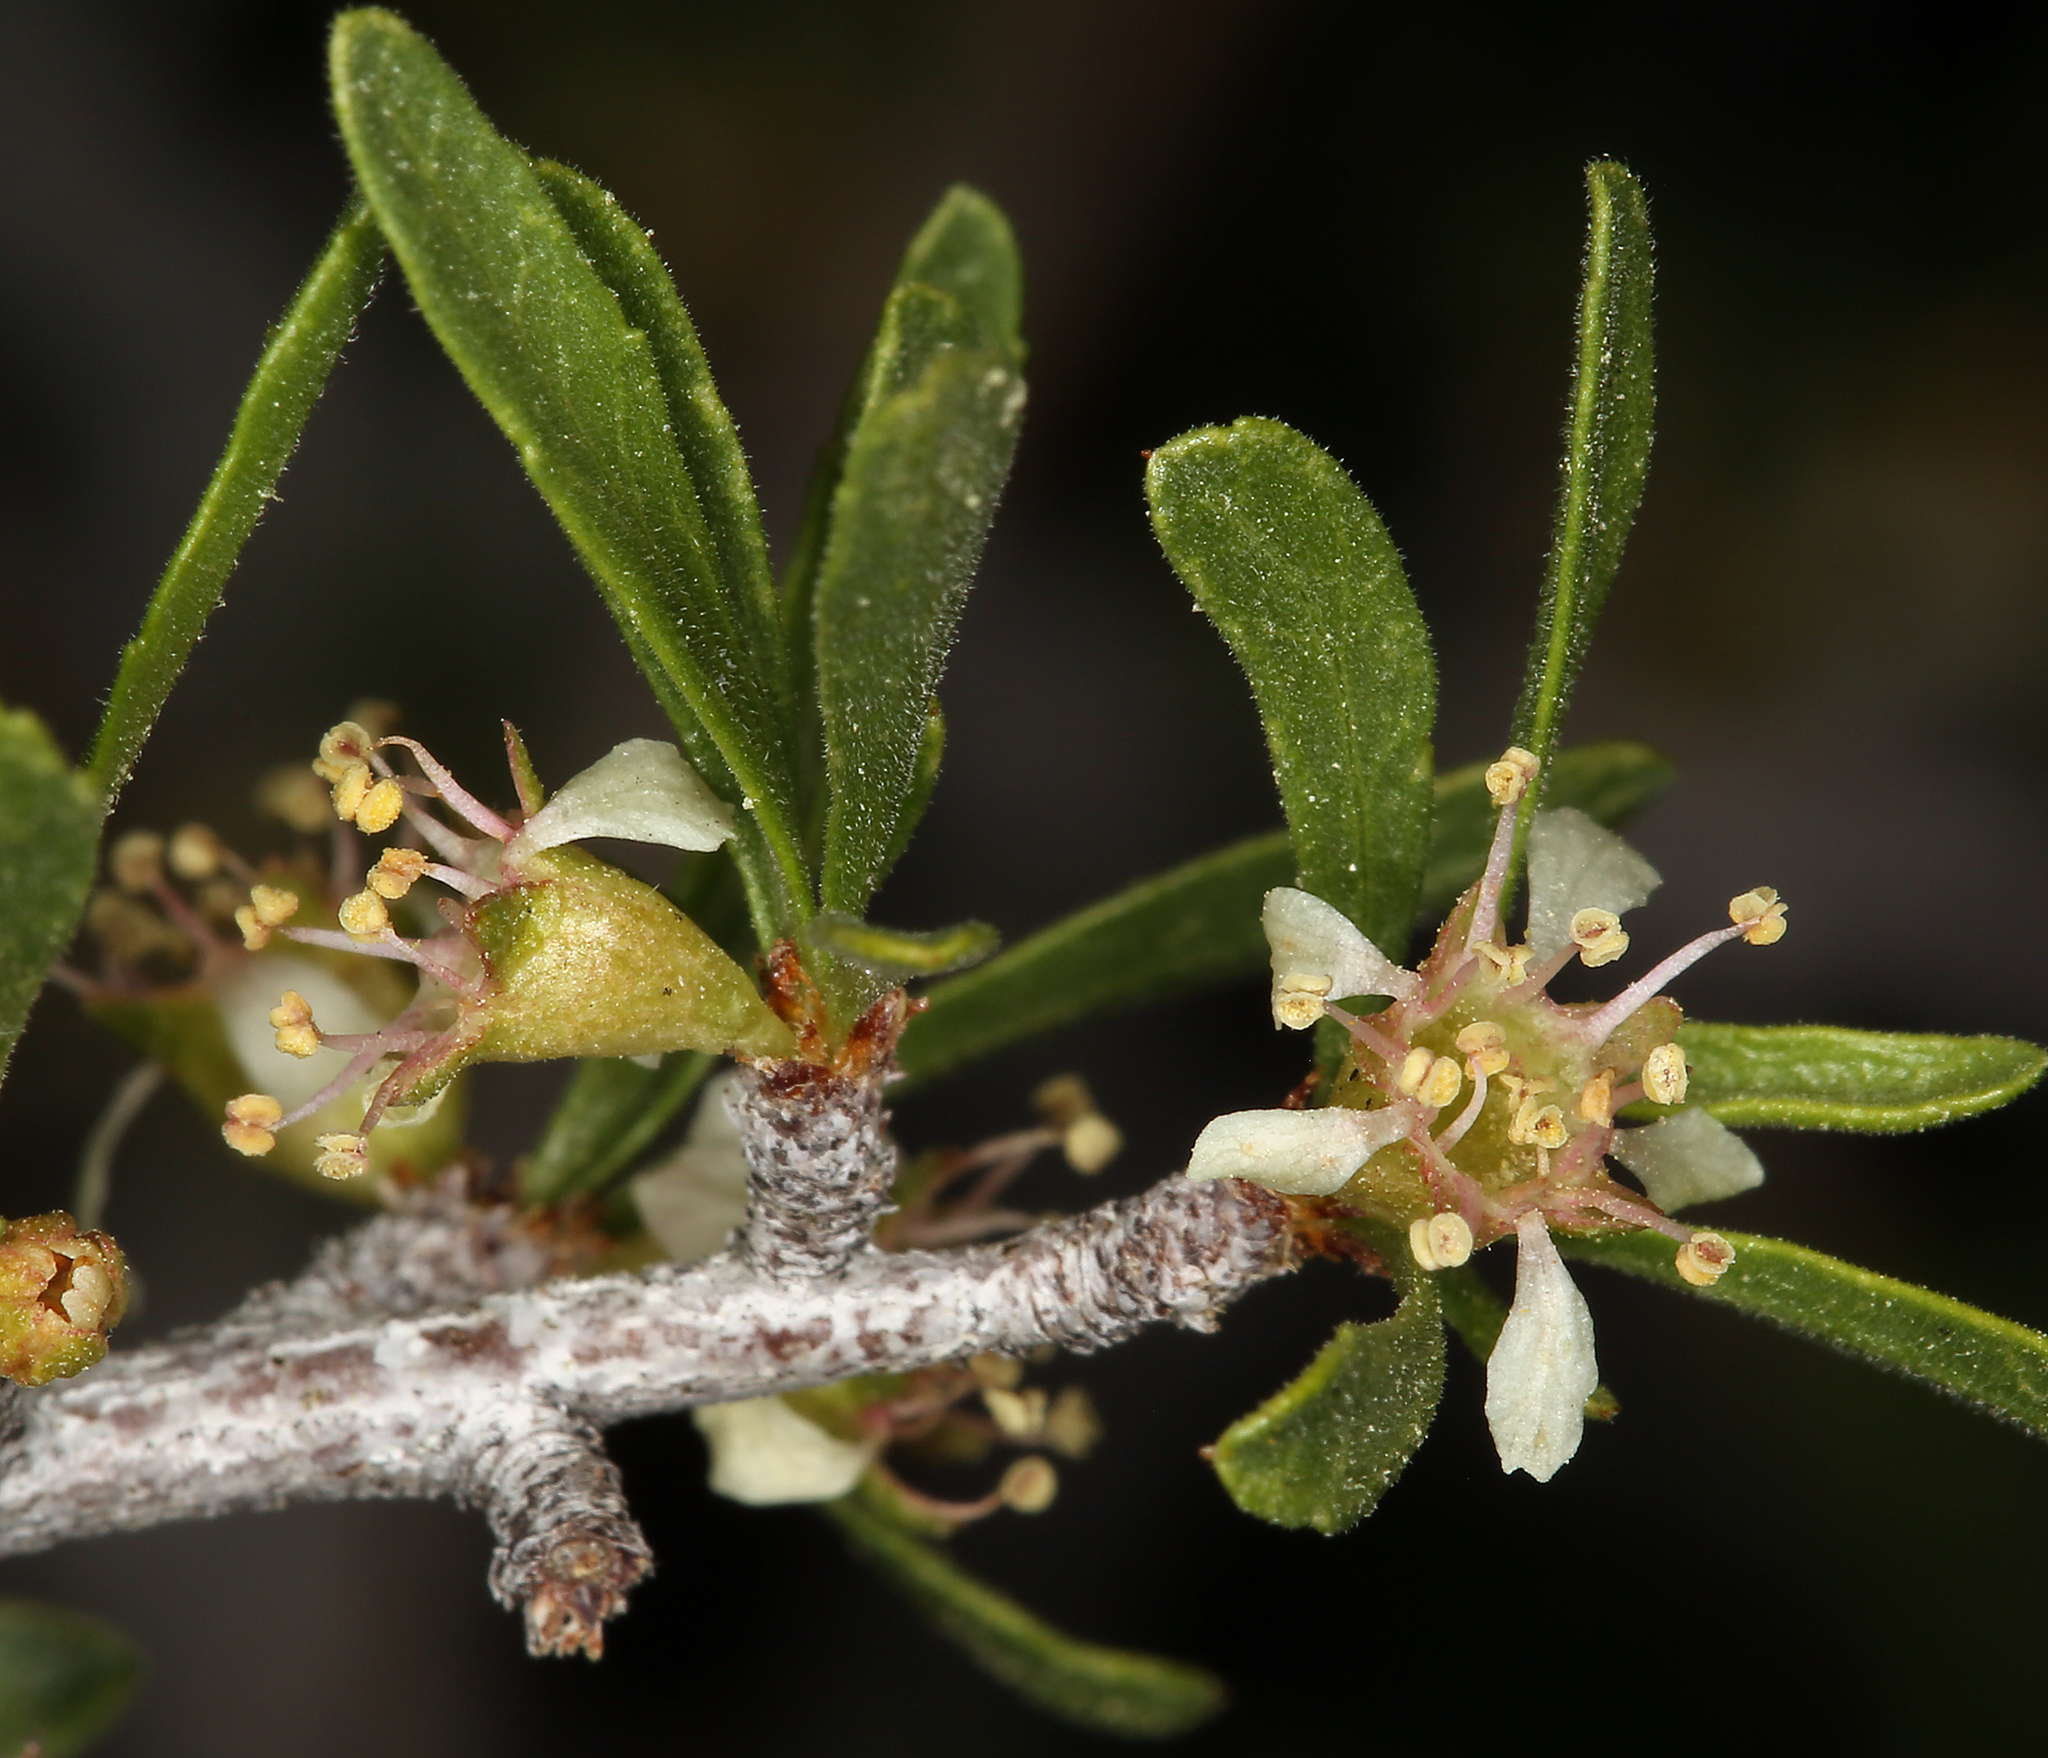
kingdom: Plantae
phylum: Tracheophyta
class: Magnoliopsida
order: Rosales
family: Rosaceae
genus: Prunus
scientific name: Prunus fasciculata
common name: Desert almond
